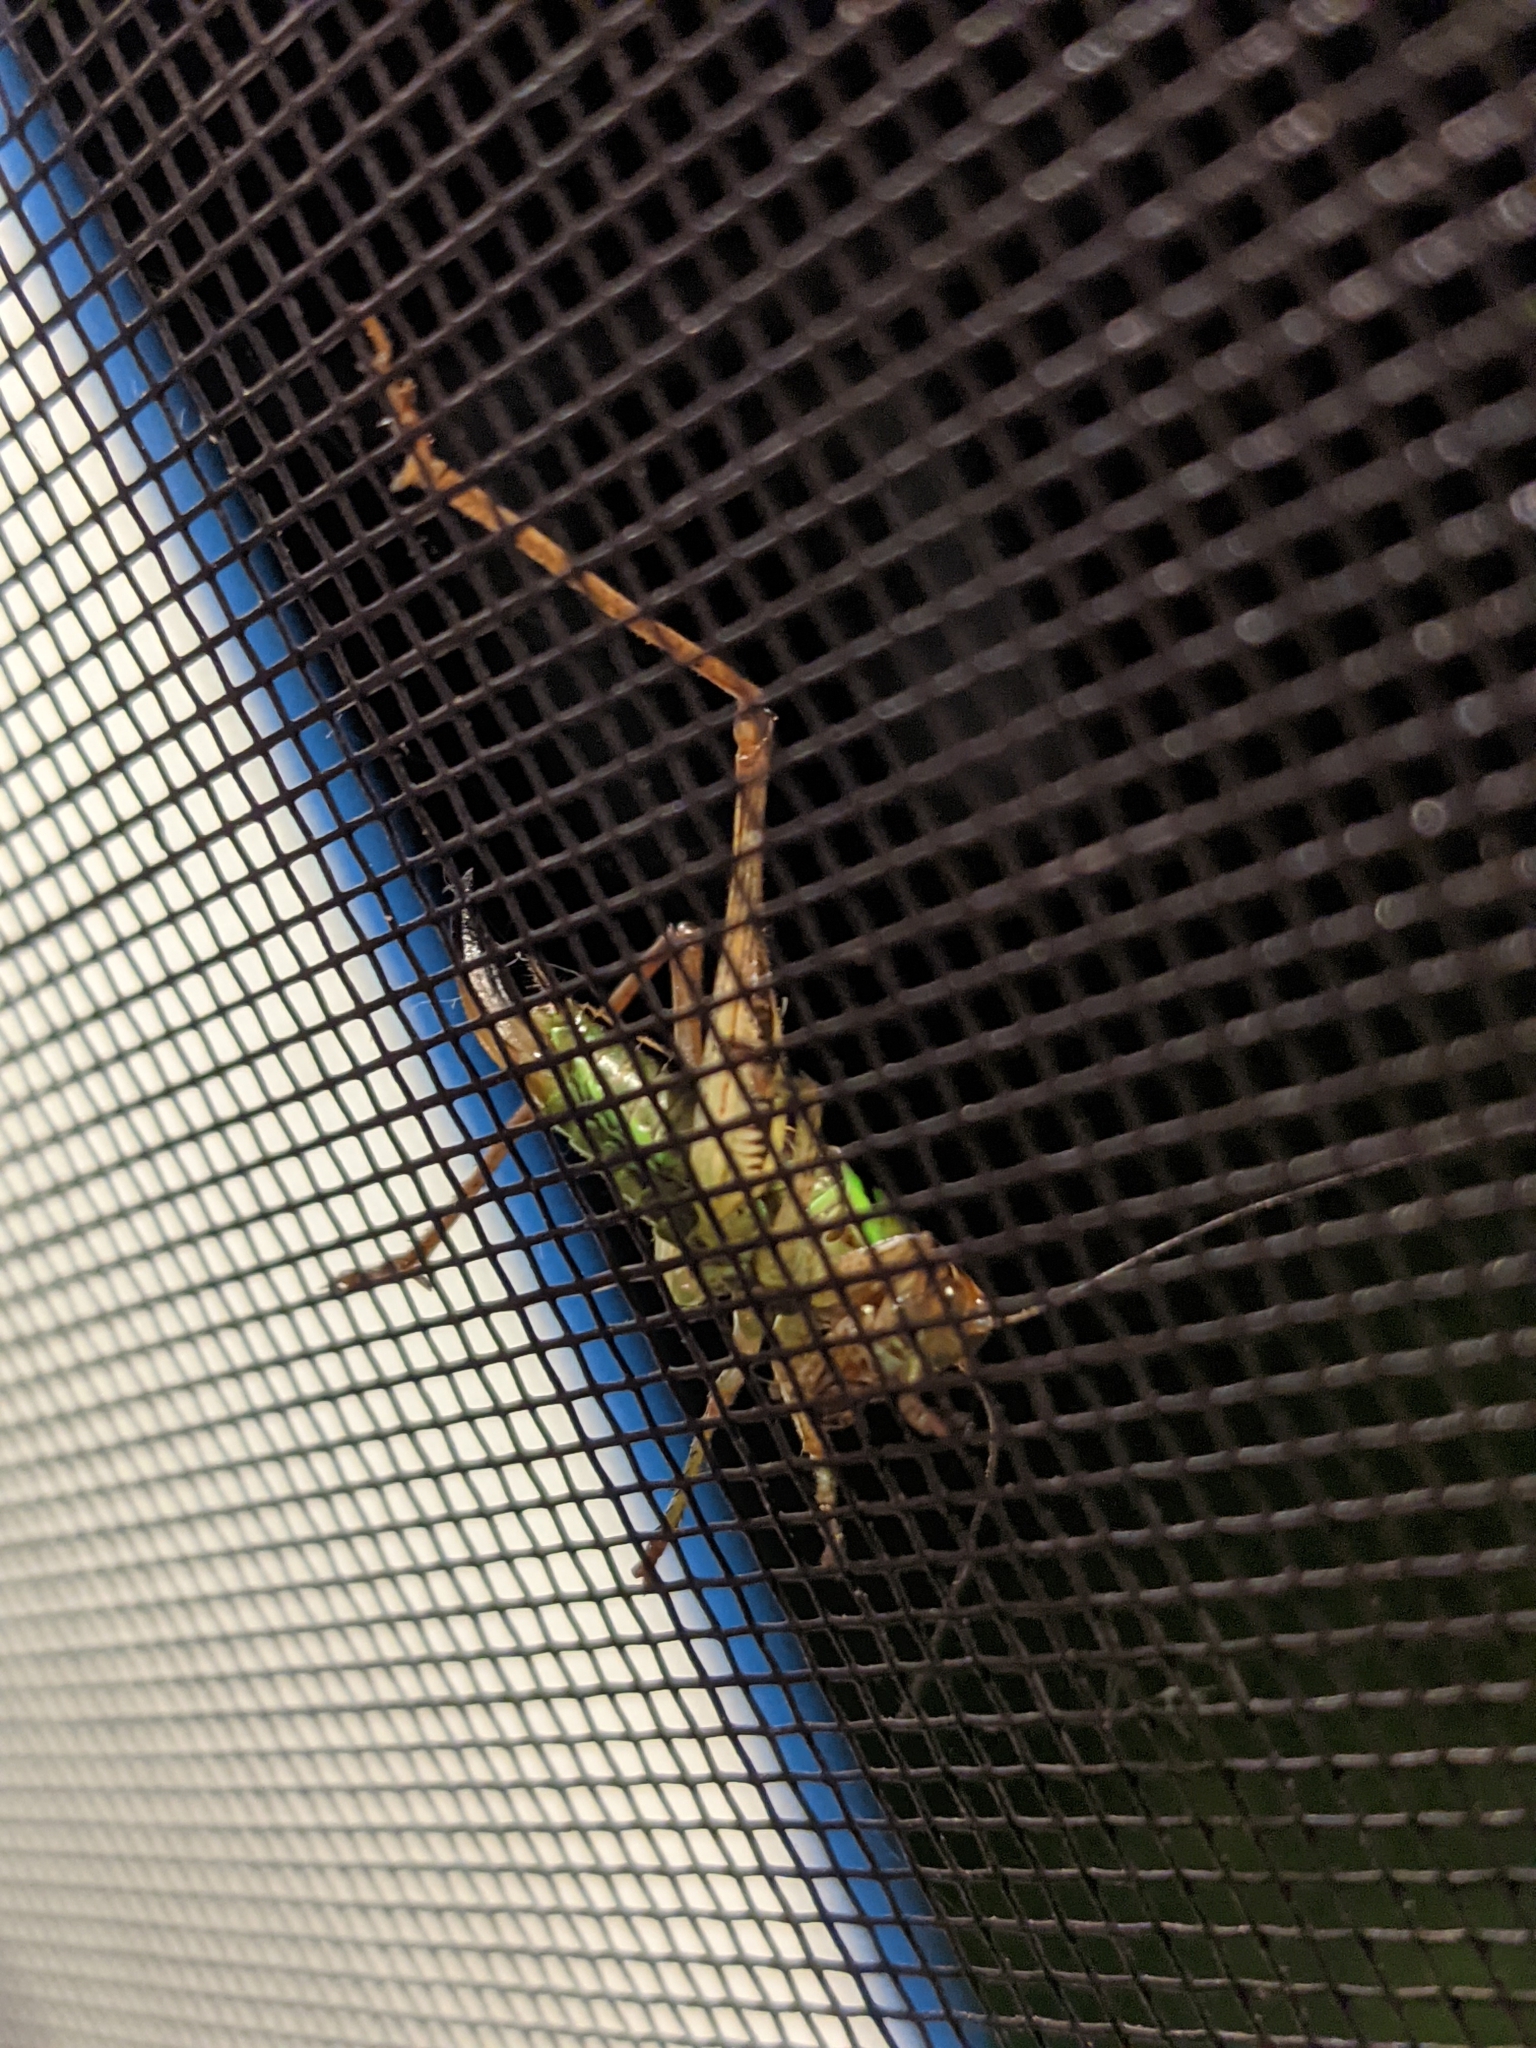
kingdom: Animalia
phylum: Arthropoda
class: Insecta
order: Orthoptera
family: Tettigoniidae
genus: Roeseliana
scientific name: Roeseliana roeselii
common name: Roesel's bush cricket
